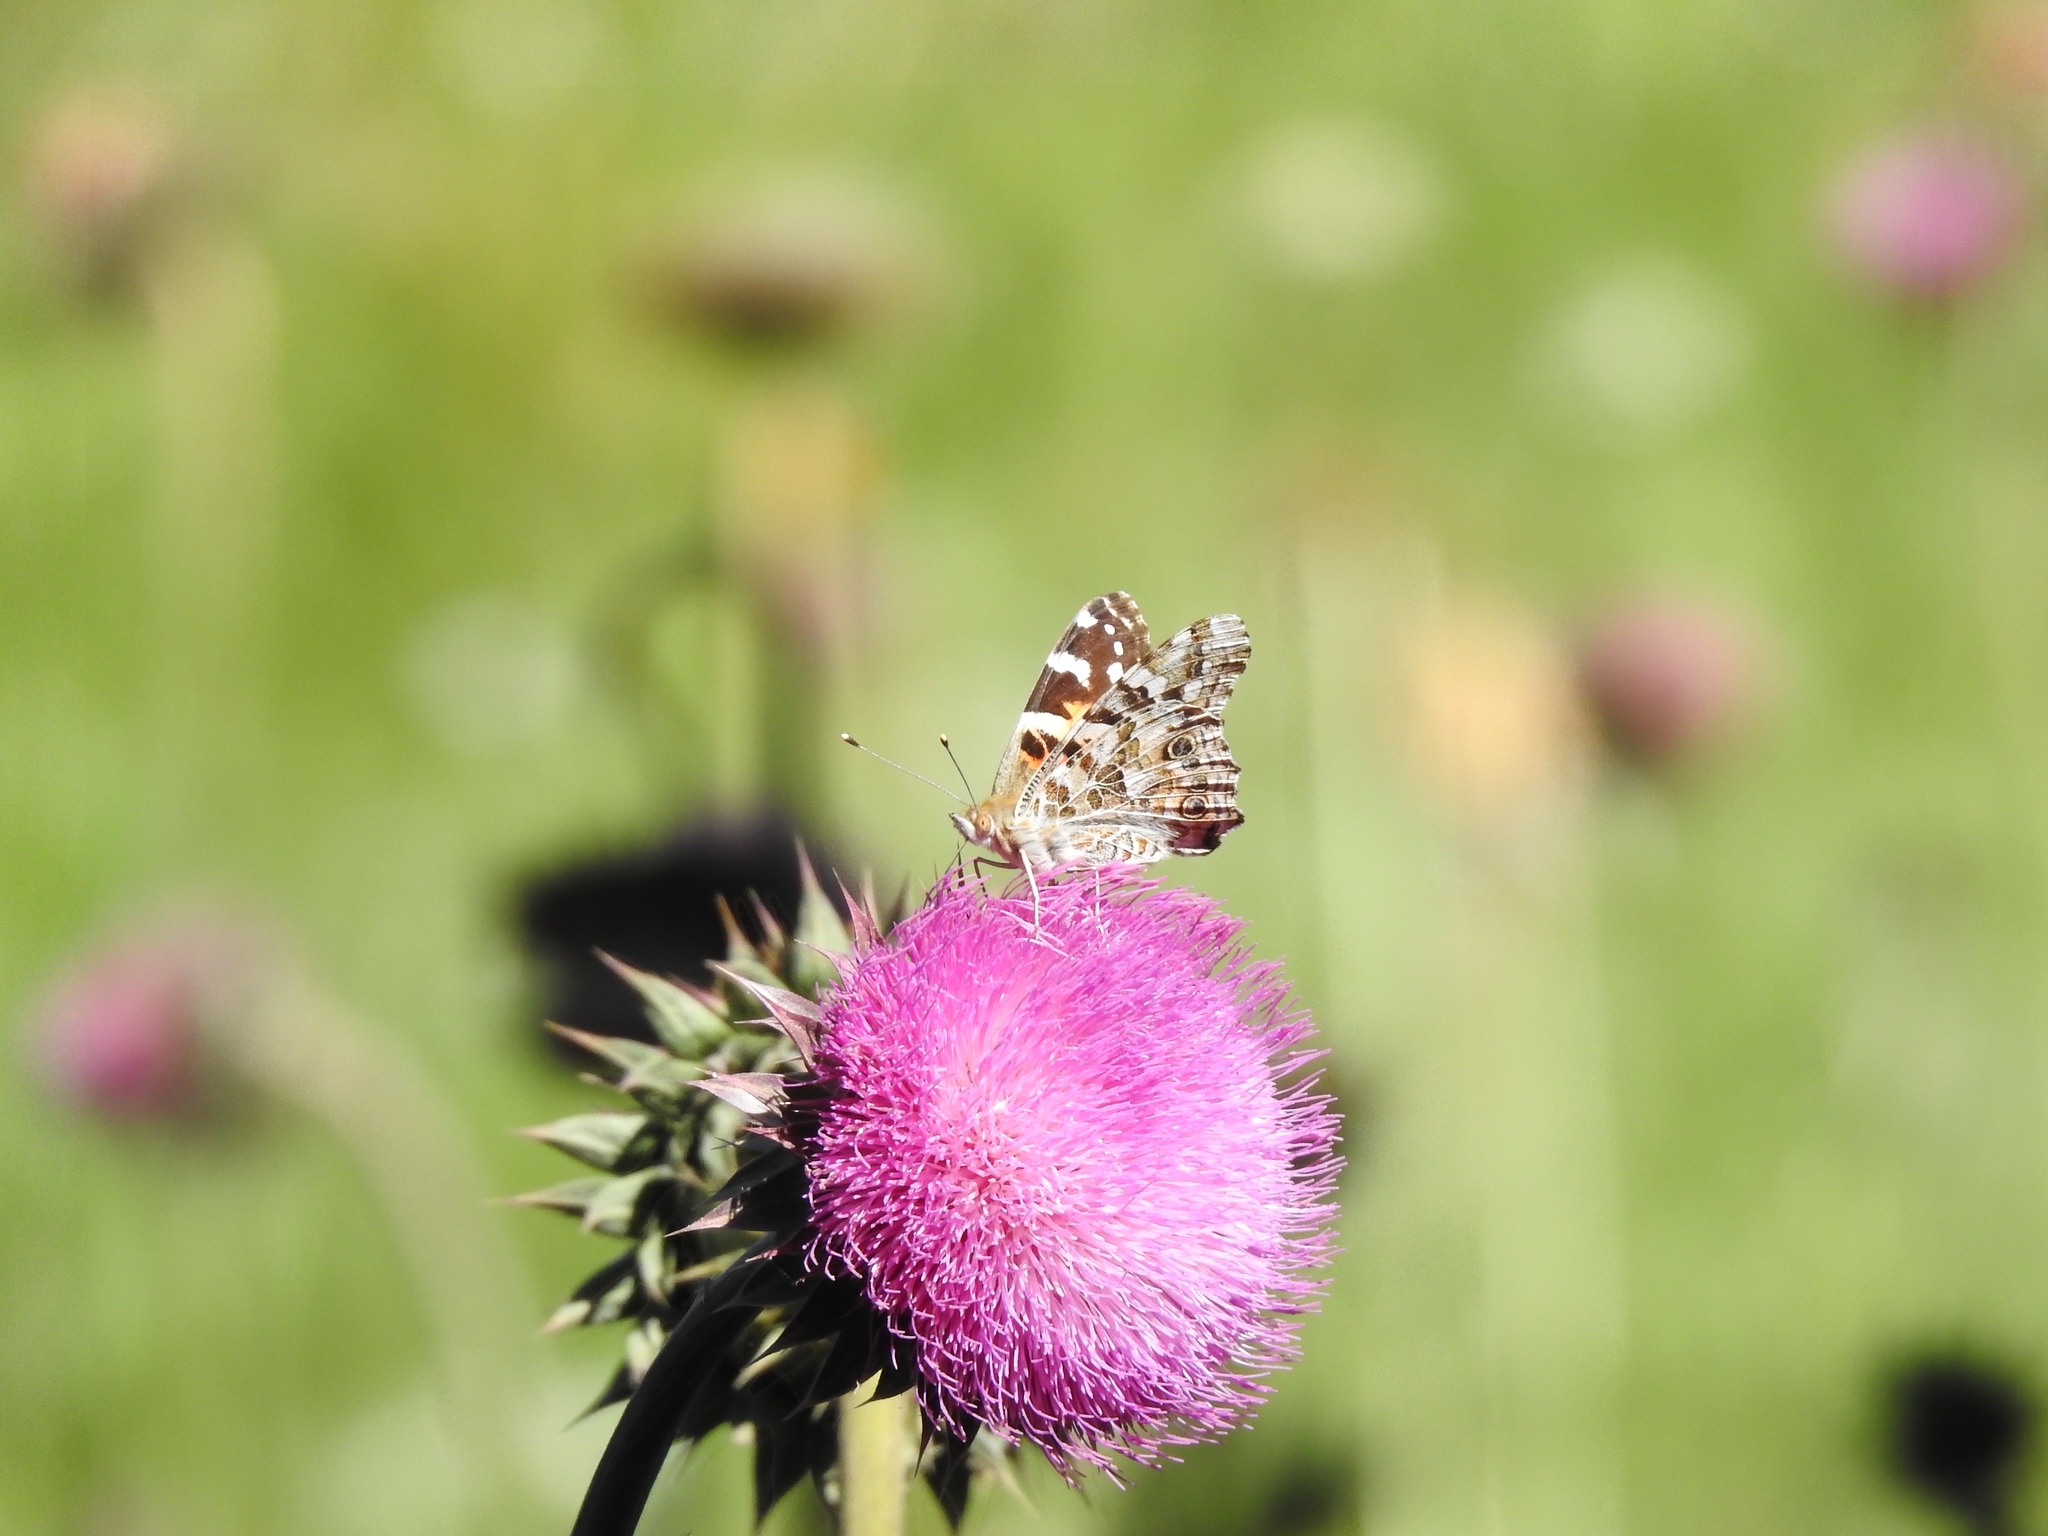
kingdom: Animalia
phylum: Arthropoda
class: Insecta
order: Lepidoptera
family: Nymphalidae
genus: Vanessa
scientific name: Vanessa cardui
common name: Painted lady
